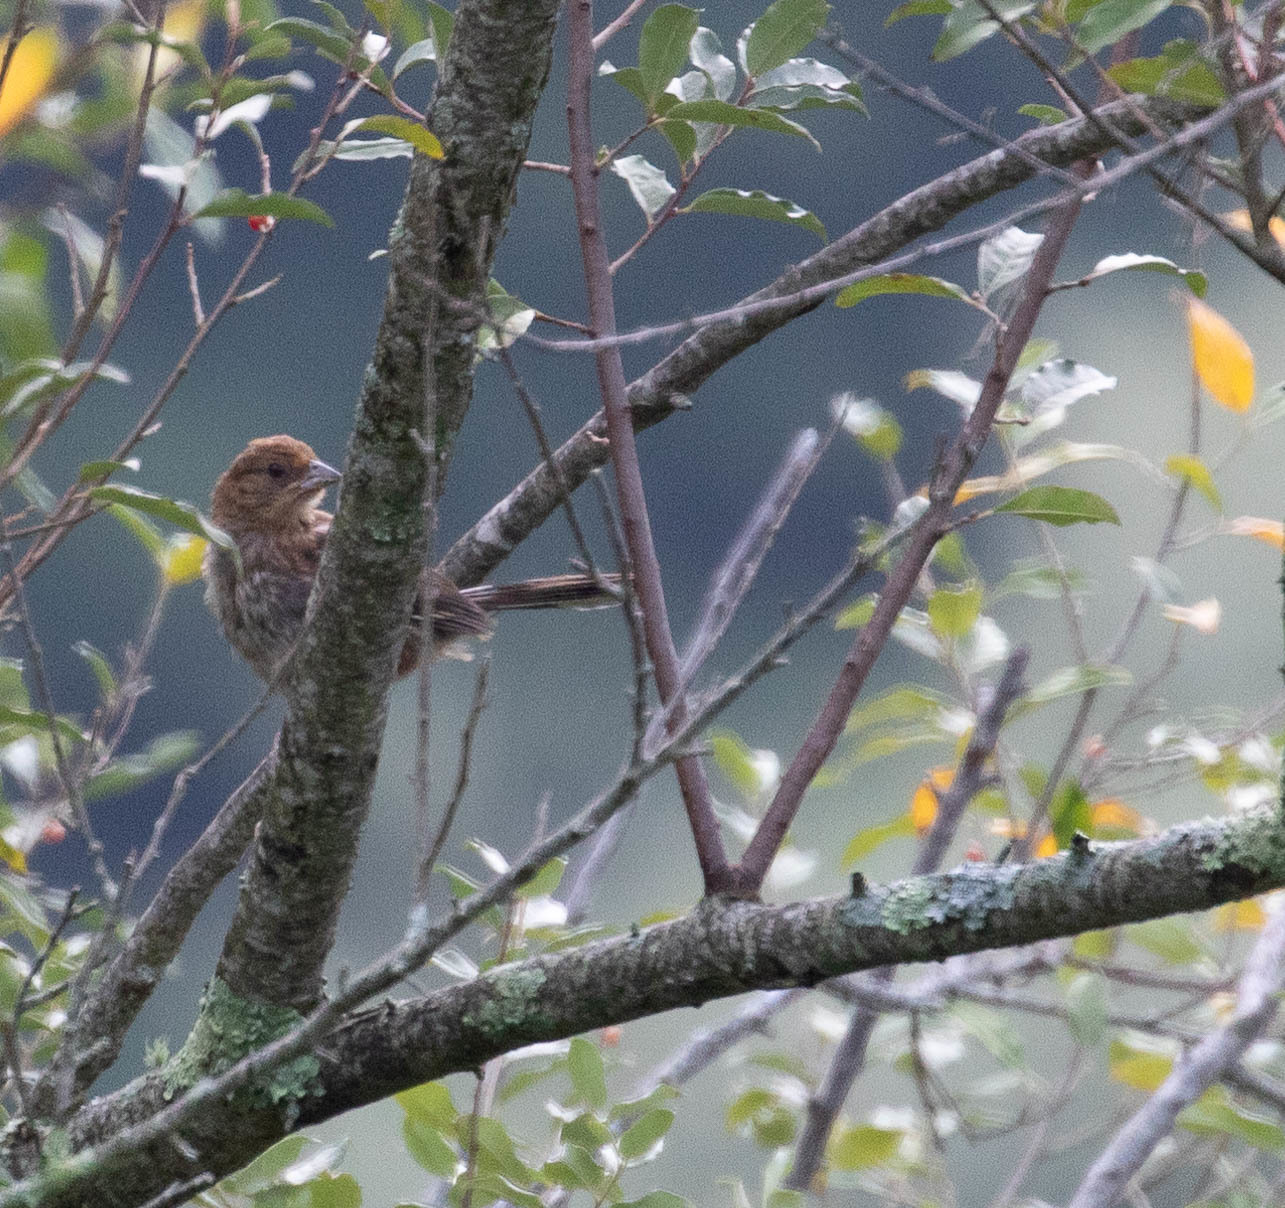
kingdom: Animalia
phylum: Chordata
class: Aves
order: Passeriformes
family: Passerellidae
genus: Pipilo
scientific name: Pipilo erythrophthalmus
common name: Eastern towhee
